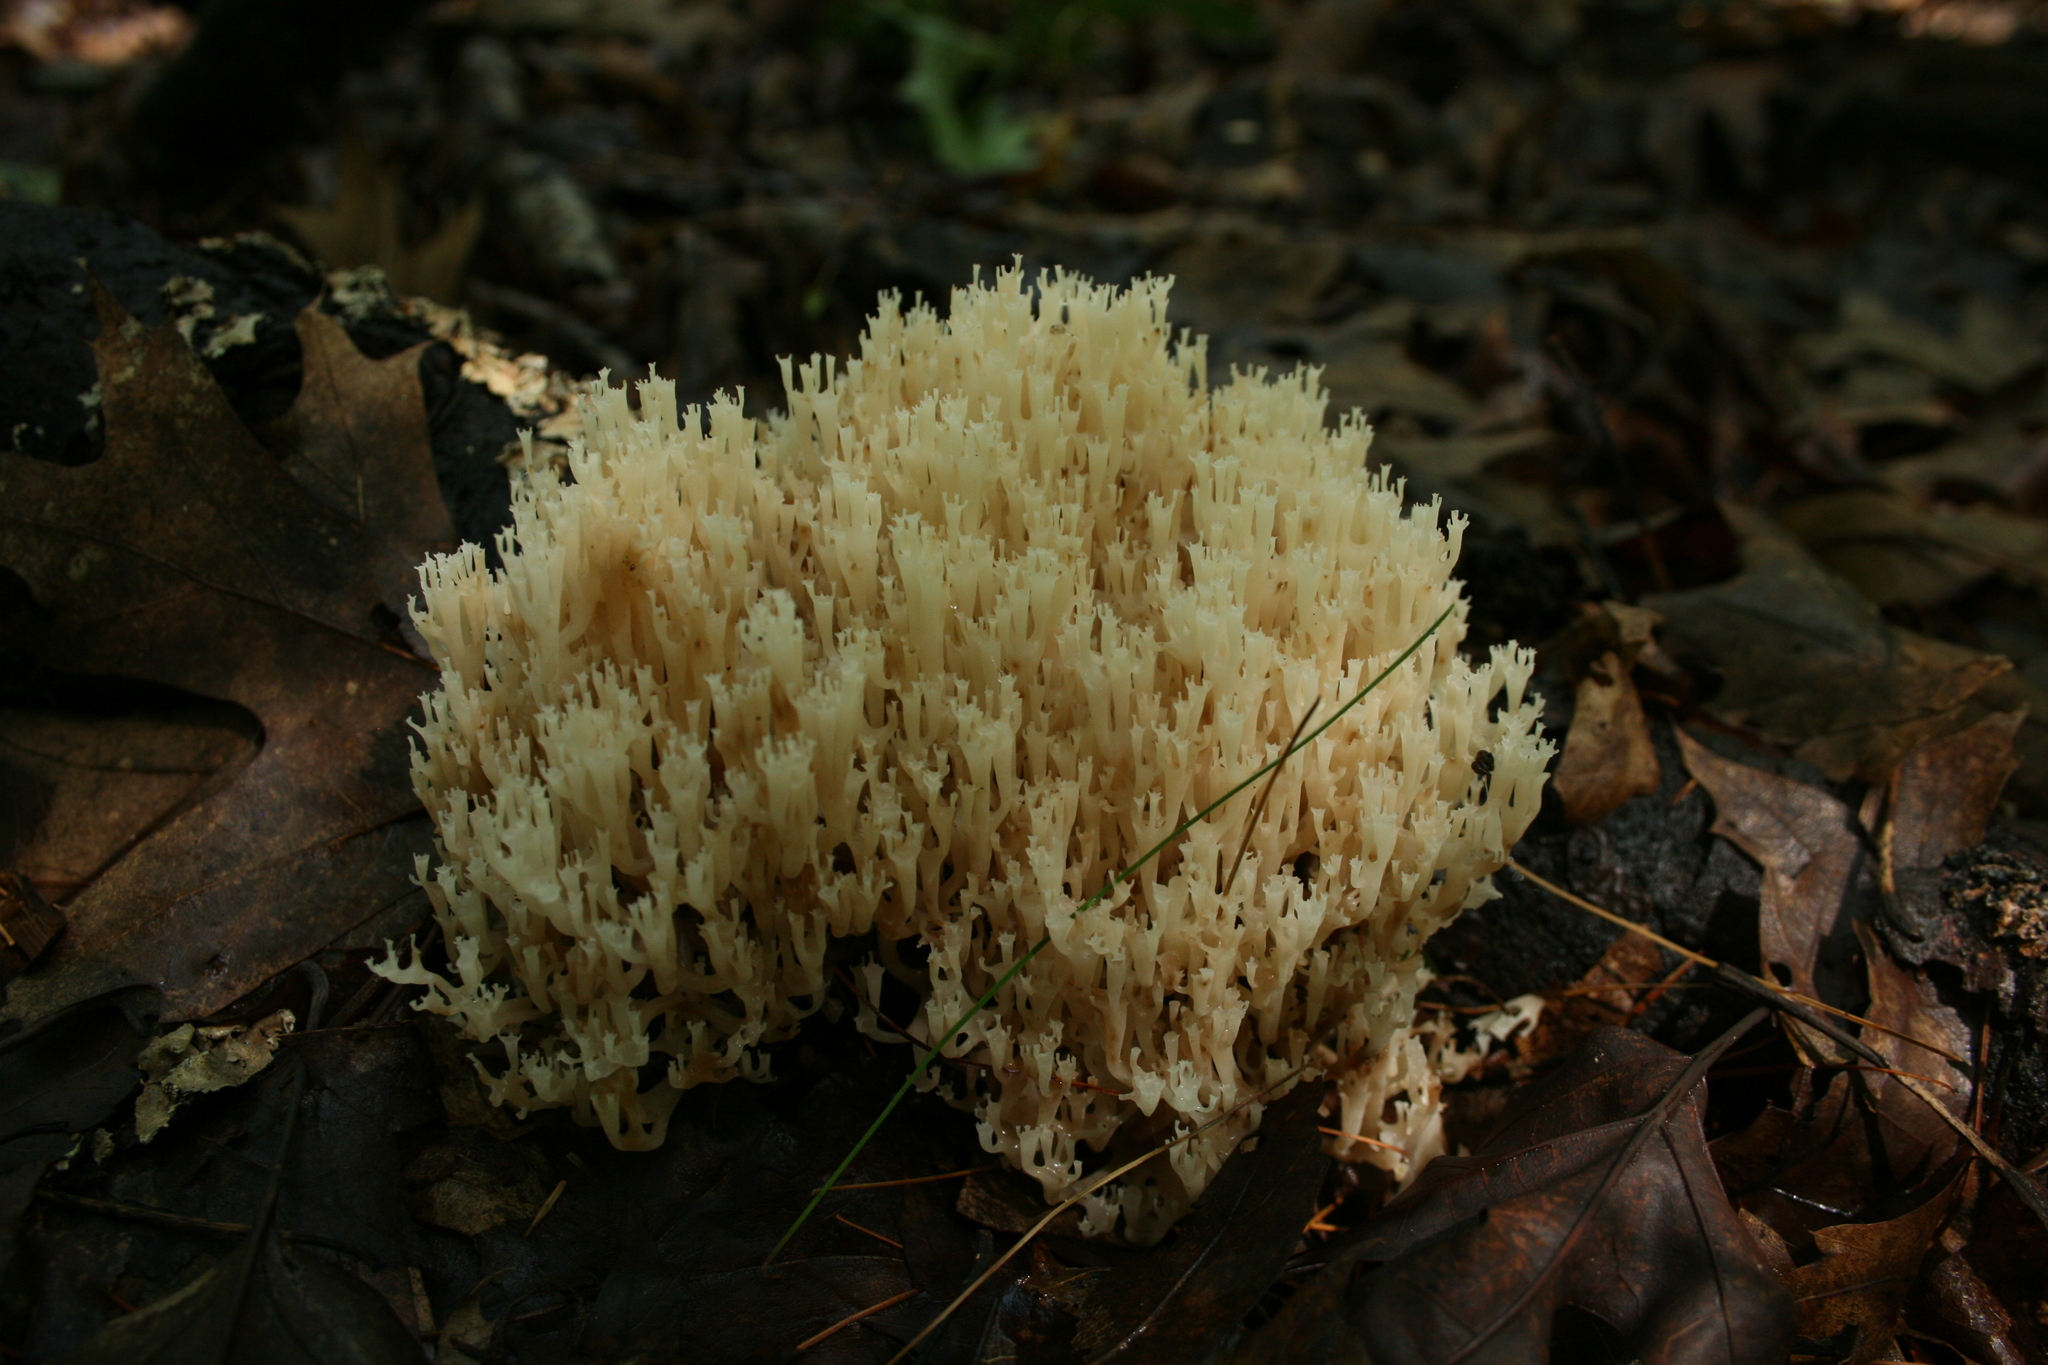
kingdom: Fungi
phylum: Basidiomycota
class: Agaricomycetes
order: Russulales
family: Auriscalpiaceae
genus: Artomyces
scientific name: Artomyces pyxidatus
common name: Crown-tipped coral fungus
